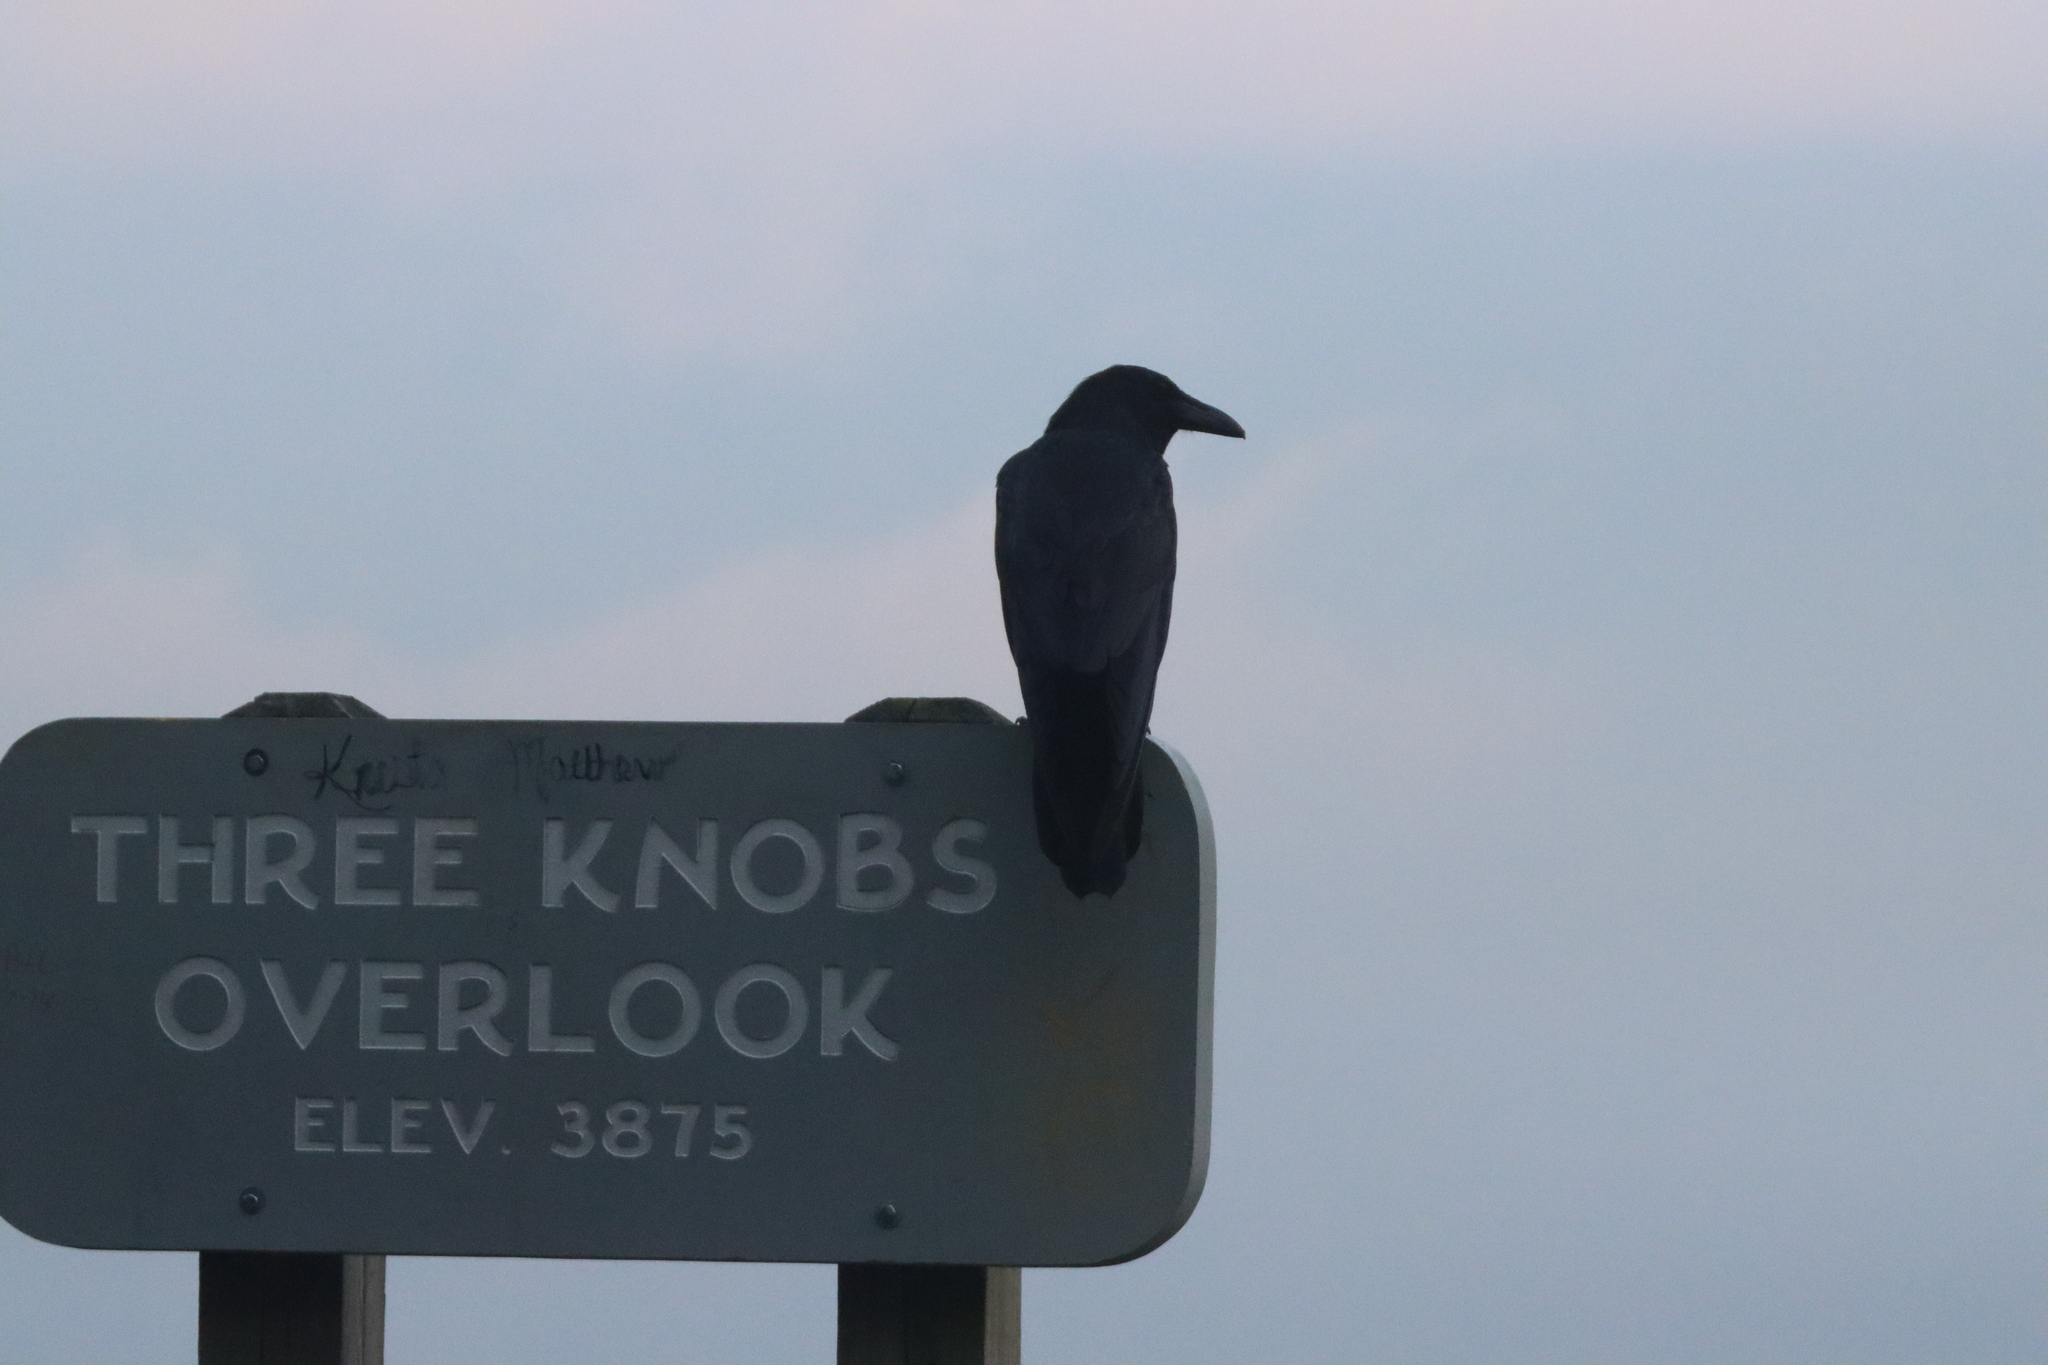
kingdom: Animalia
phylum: Chordata
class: Aves
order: Passeriformes
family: Corvidae
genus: Corvus
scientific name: Corvus corax
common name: Common raven
